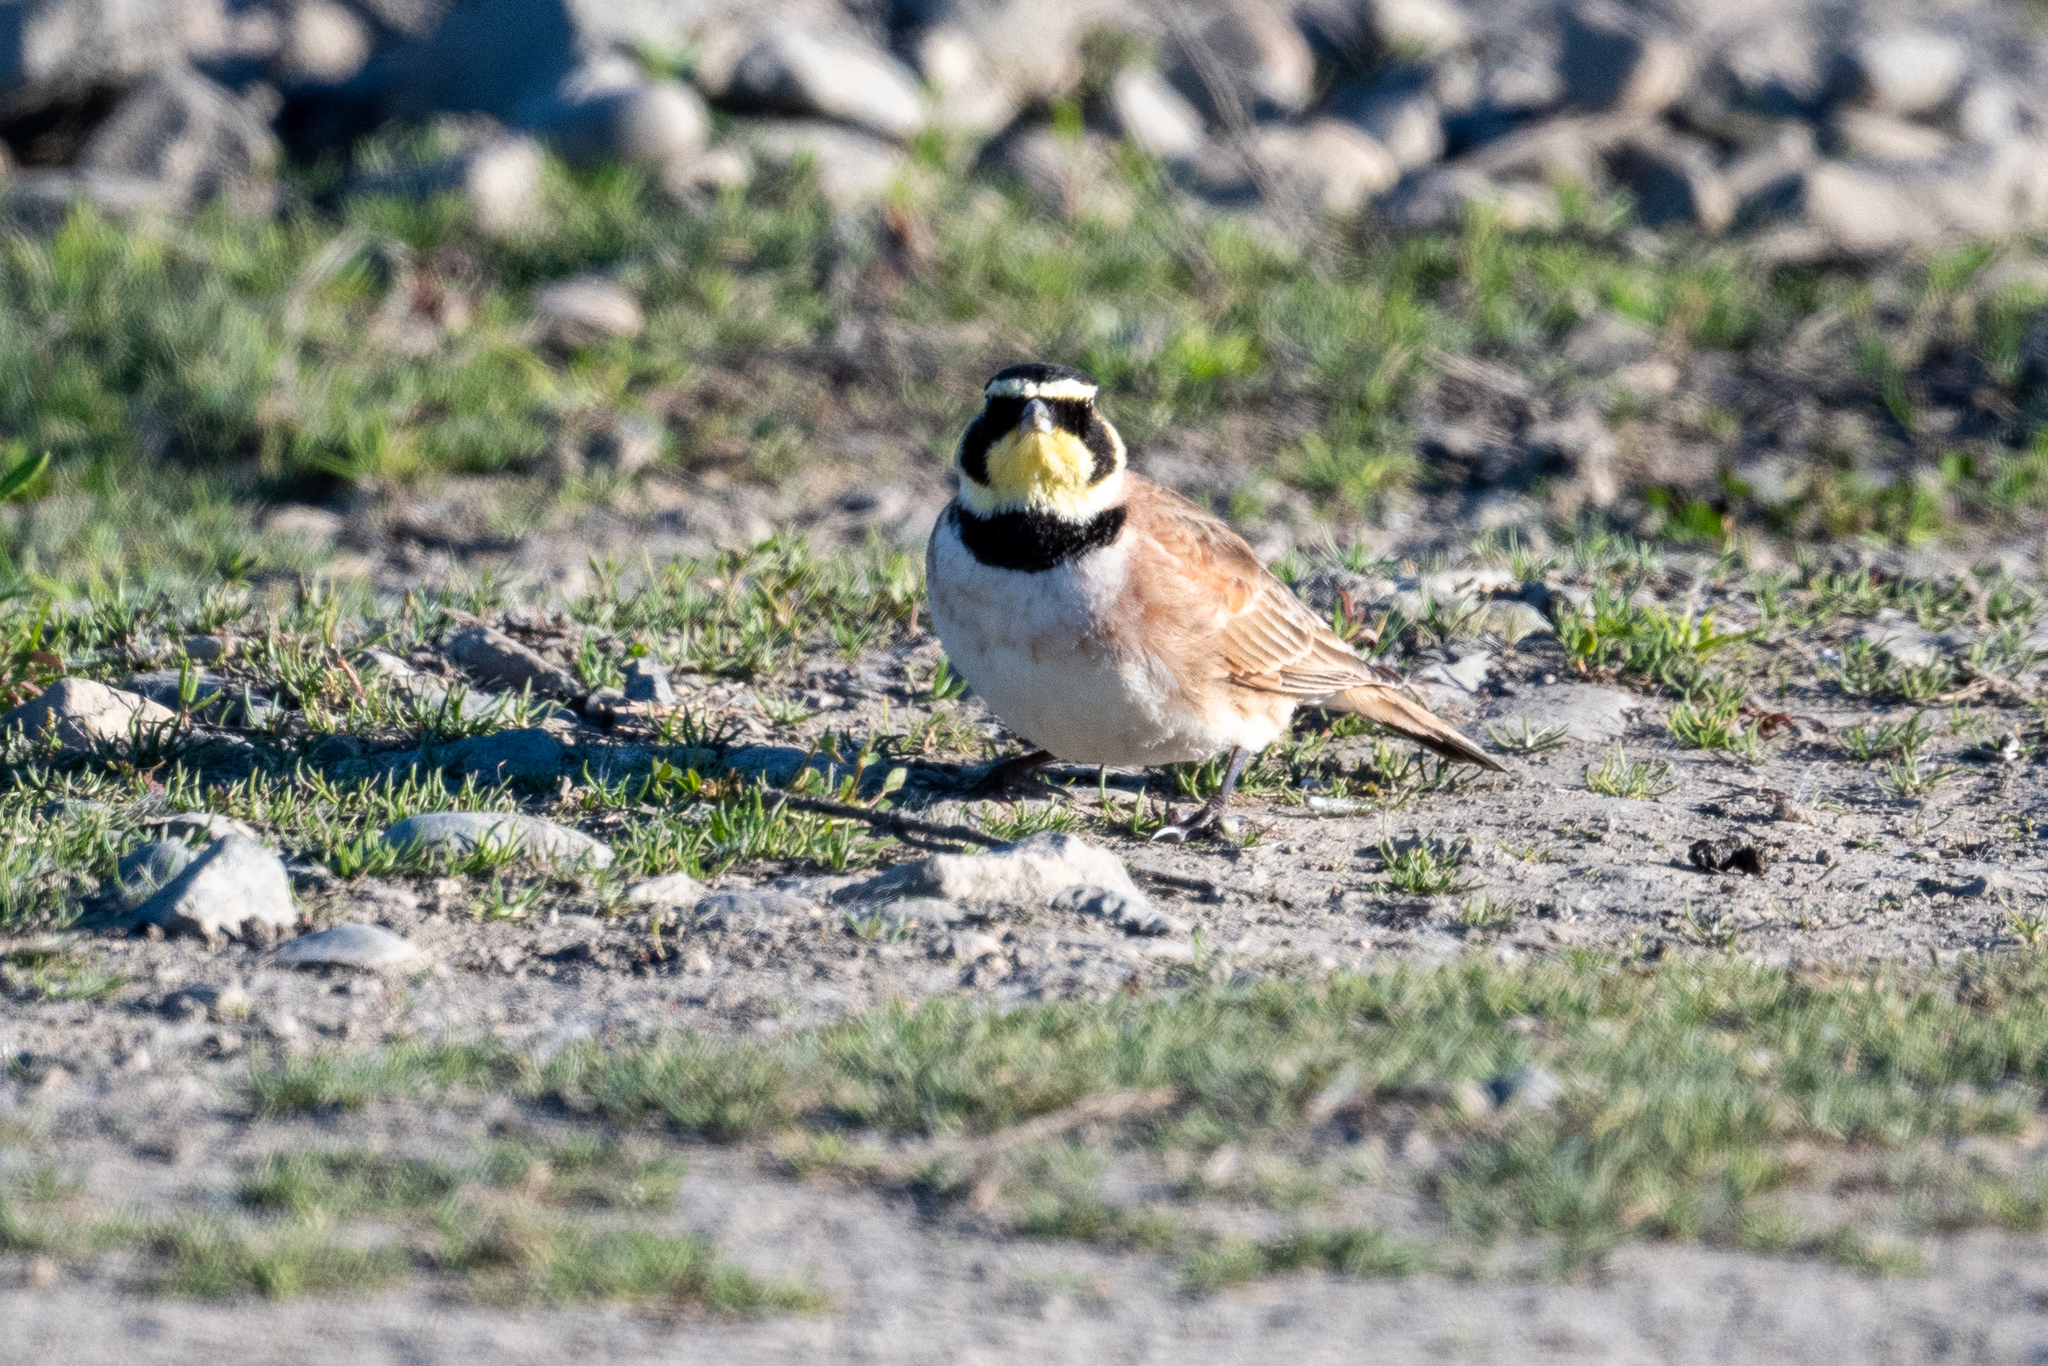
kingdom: Animalia
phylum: Chordata
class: Aves
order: Passeriformes
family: Alaudidae
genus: Eremophila
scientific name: Eremophila alpestris
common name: Horned lark
